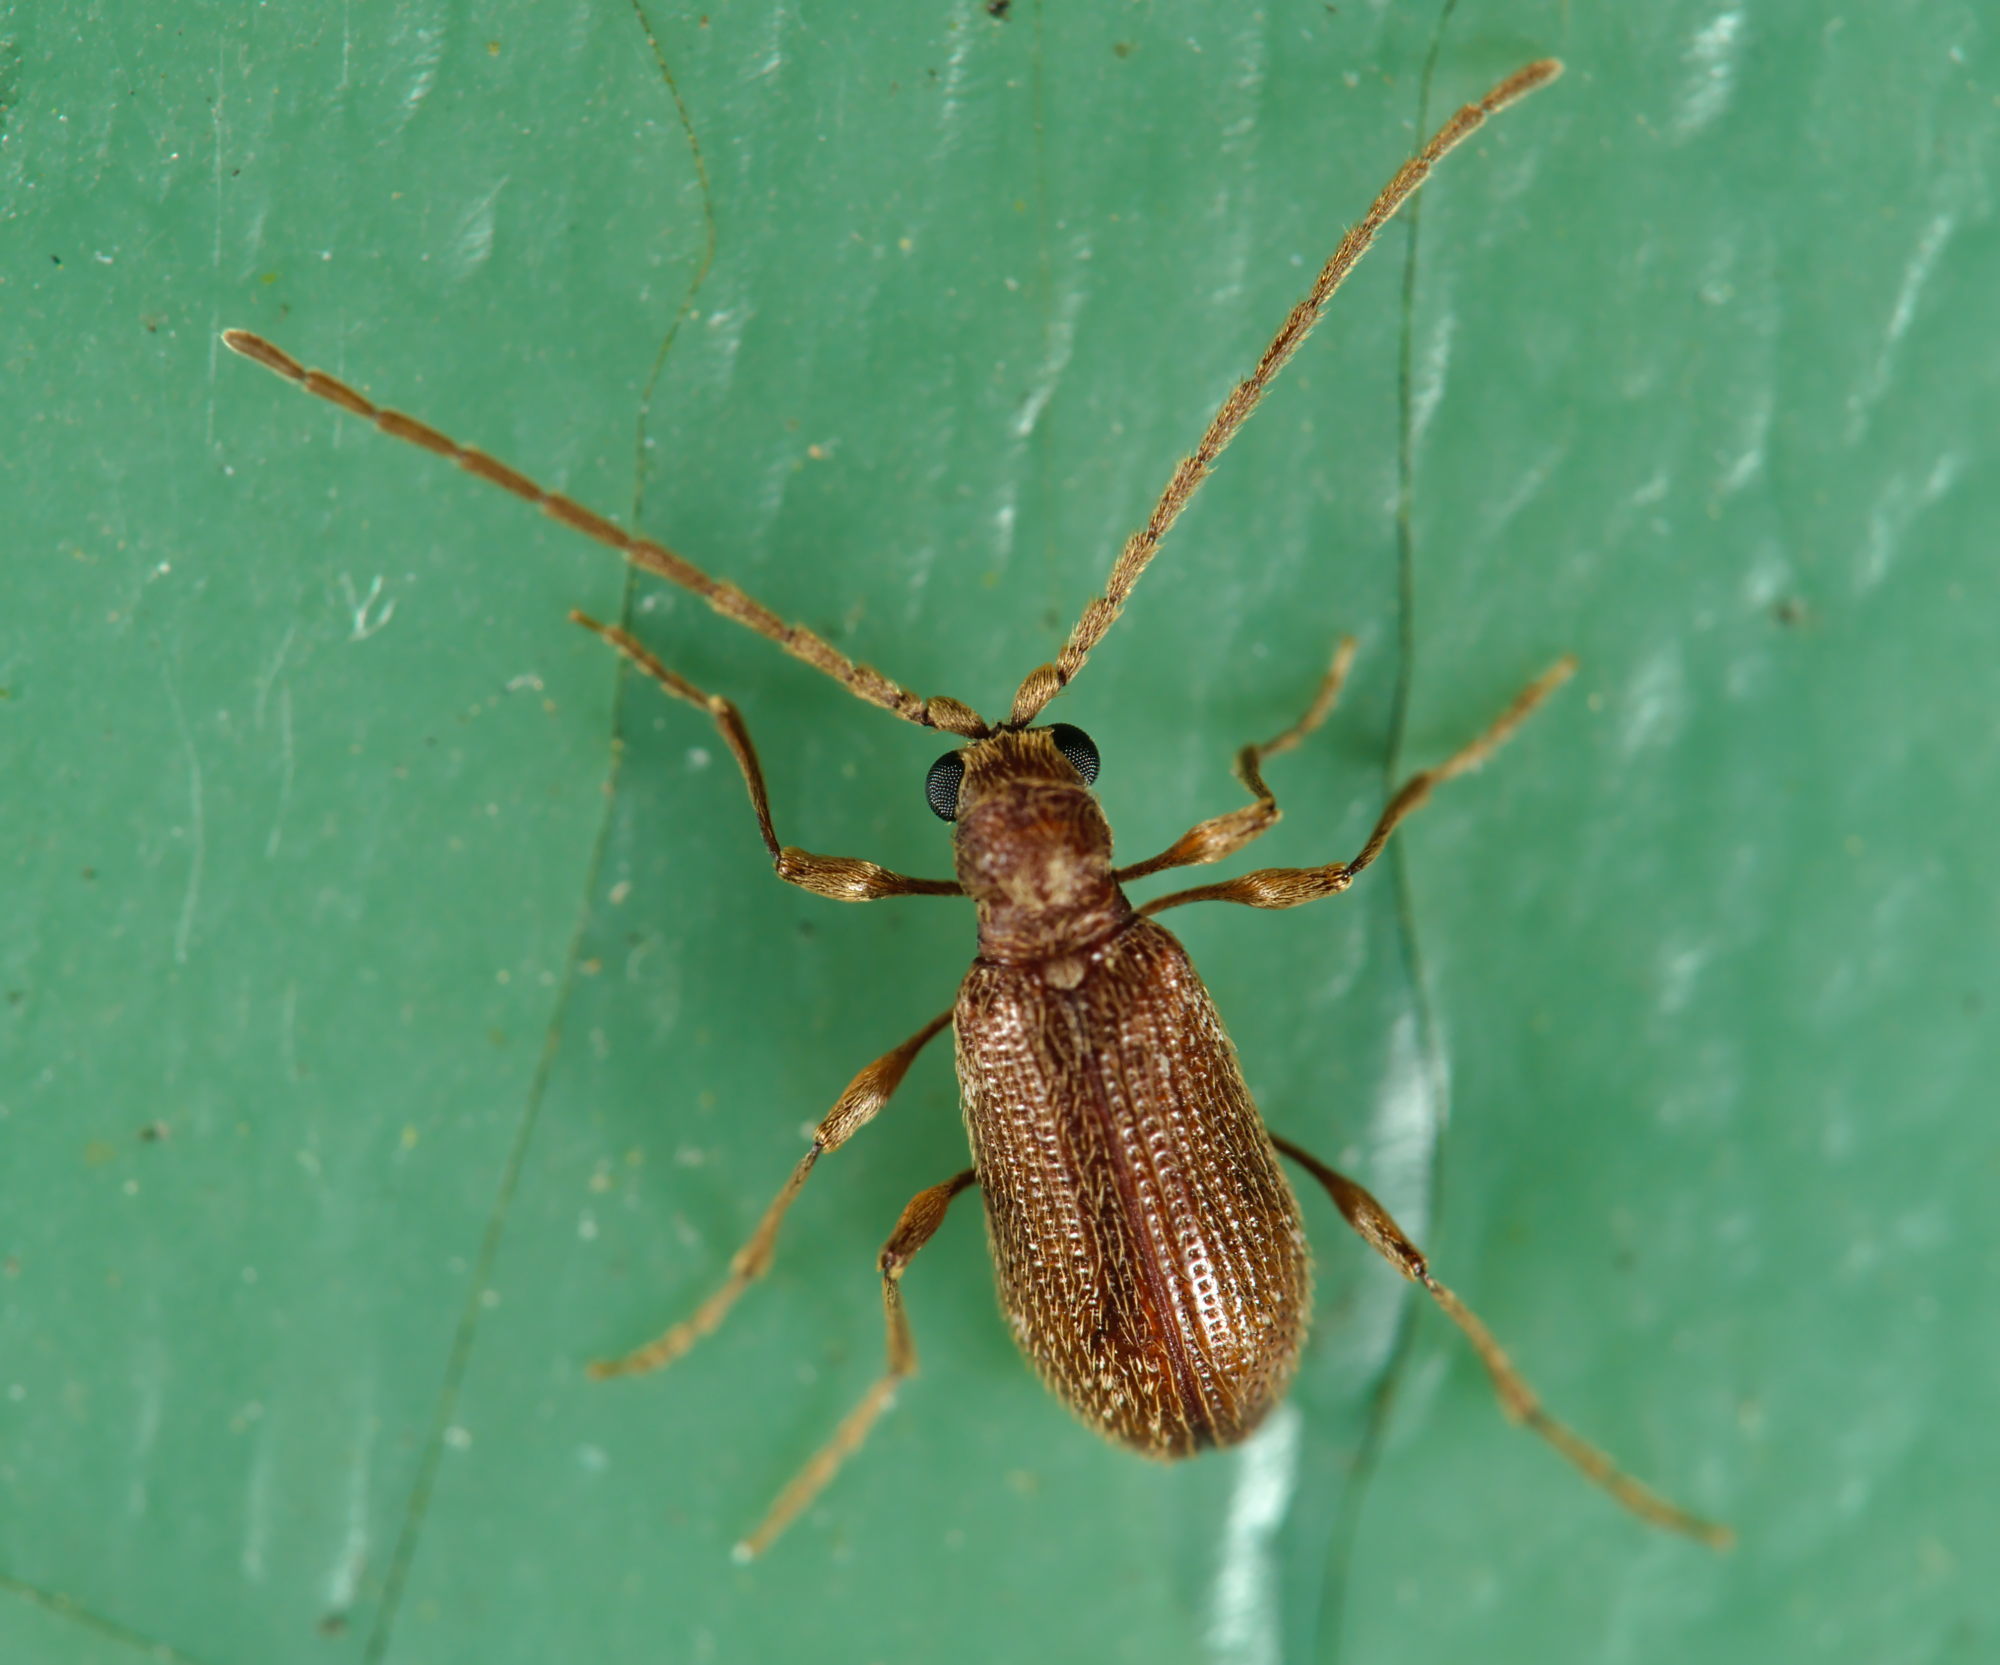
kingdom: Animalia
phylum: Arthropoda
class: Insecta
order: Coleoptera
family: Ptinidae
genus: Ptinus
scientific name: Ptinus fur
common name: White-marked spider beetle
